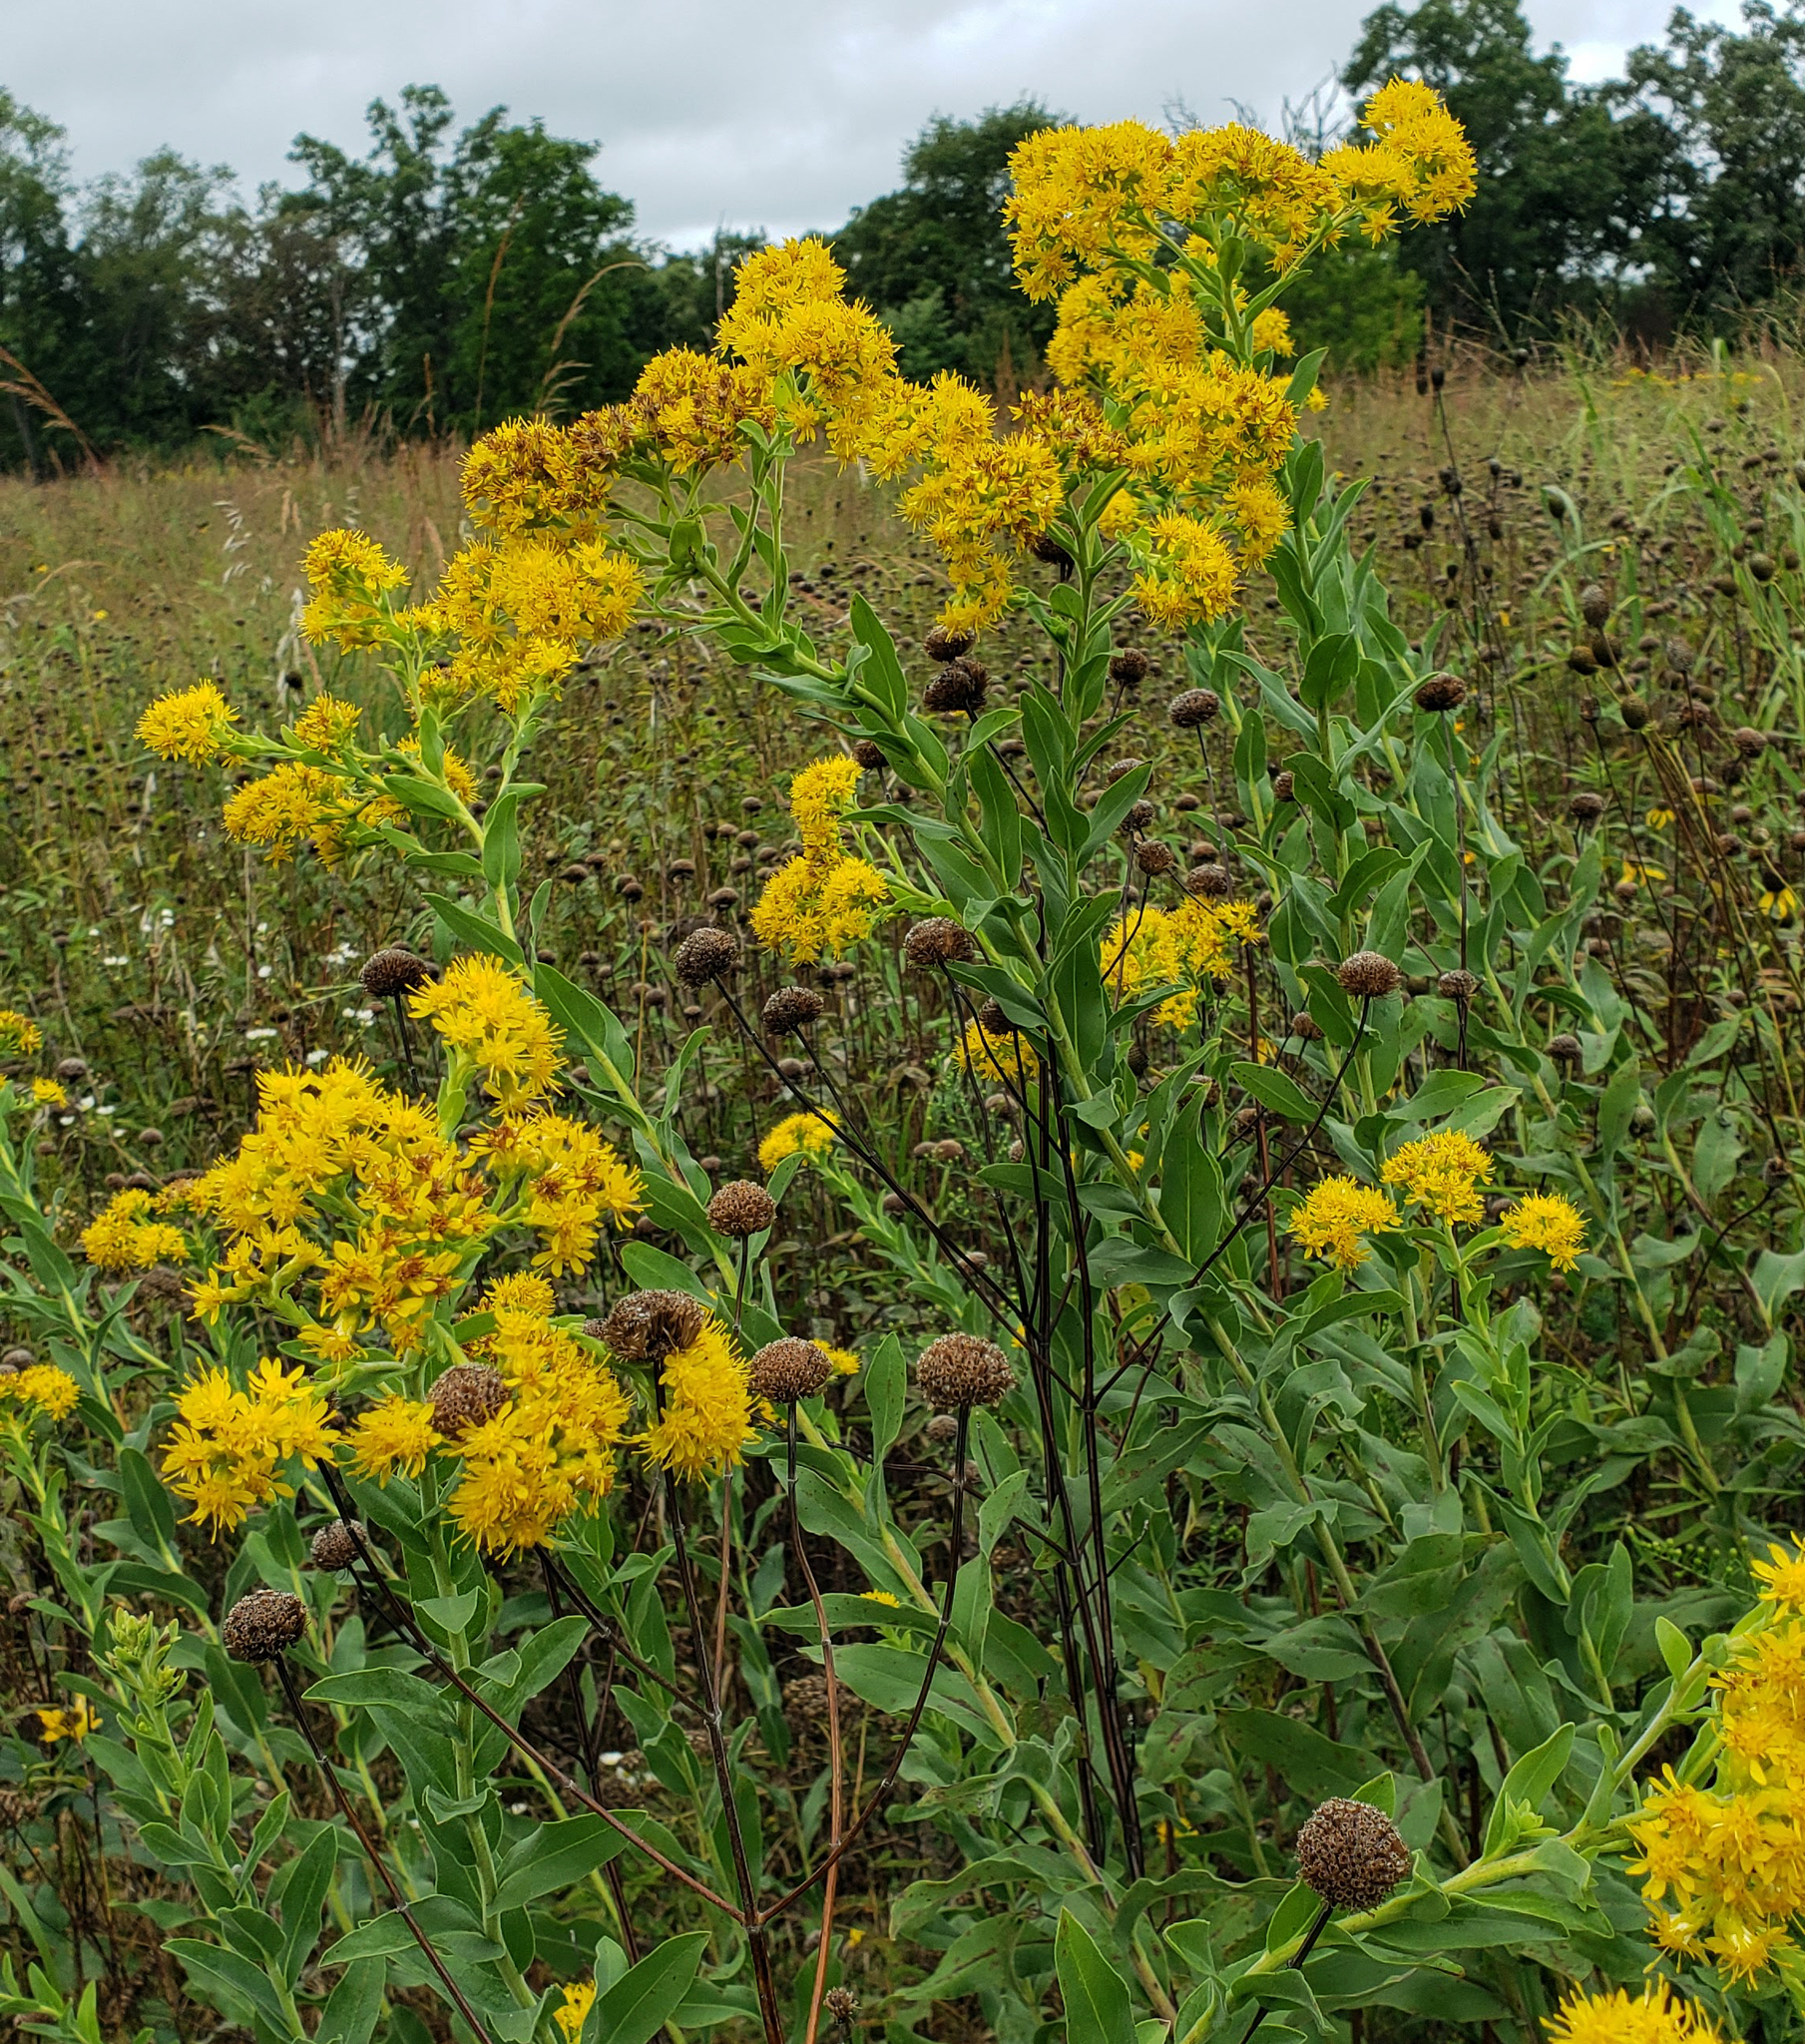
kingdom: Plantae
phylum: Tracheophyta
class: Magnoliopsida
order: Asterales
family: Asteraceae
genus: Solidago
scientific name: Solidago rigida
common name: Rigid goldenrod
